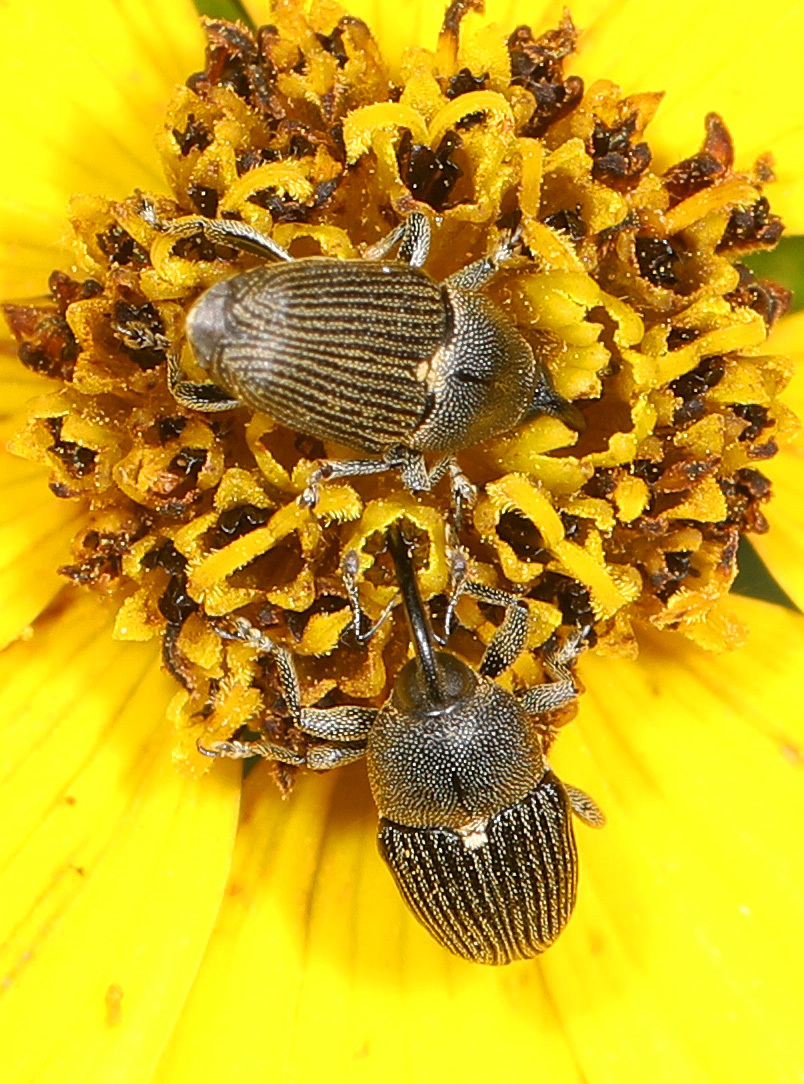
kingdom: Animalia
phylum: Arthropoda
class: Insecta
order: Coleoptera
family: Curculionidae
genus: Odontocorynus
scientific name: Odontocorynus salebrosus
